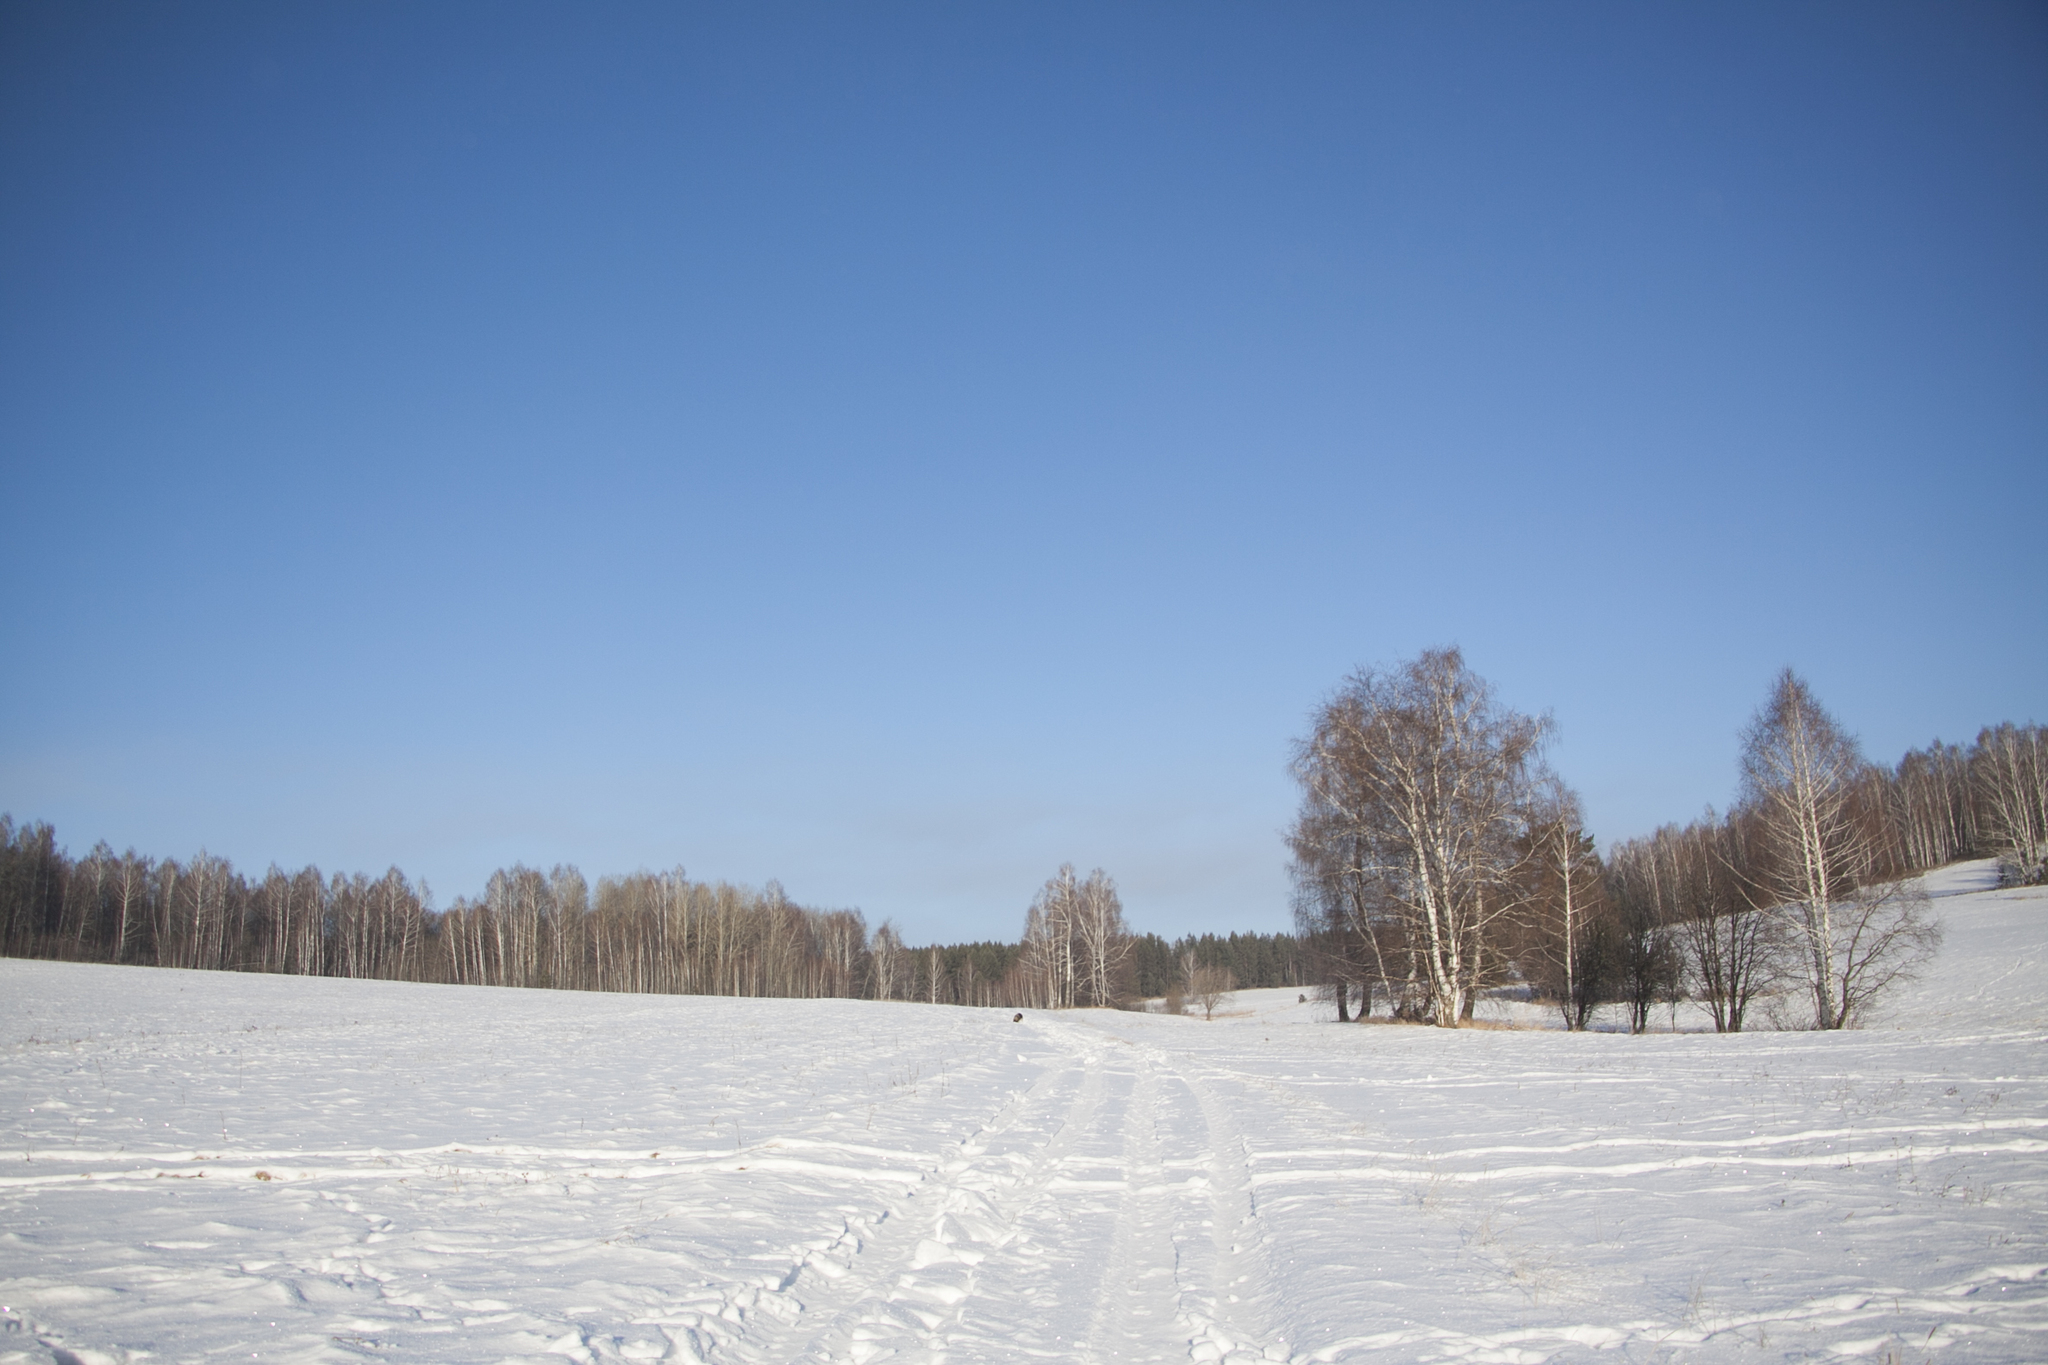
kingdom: Plantae
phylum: Tracheophyta
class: Magnoliopsida
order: Fagales
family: Betulaceae
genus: Betula
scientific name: Betula pendula
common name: Silver birch
